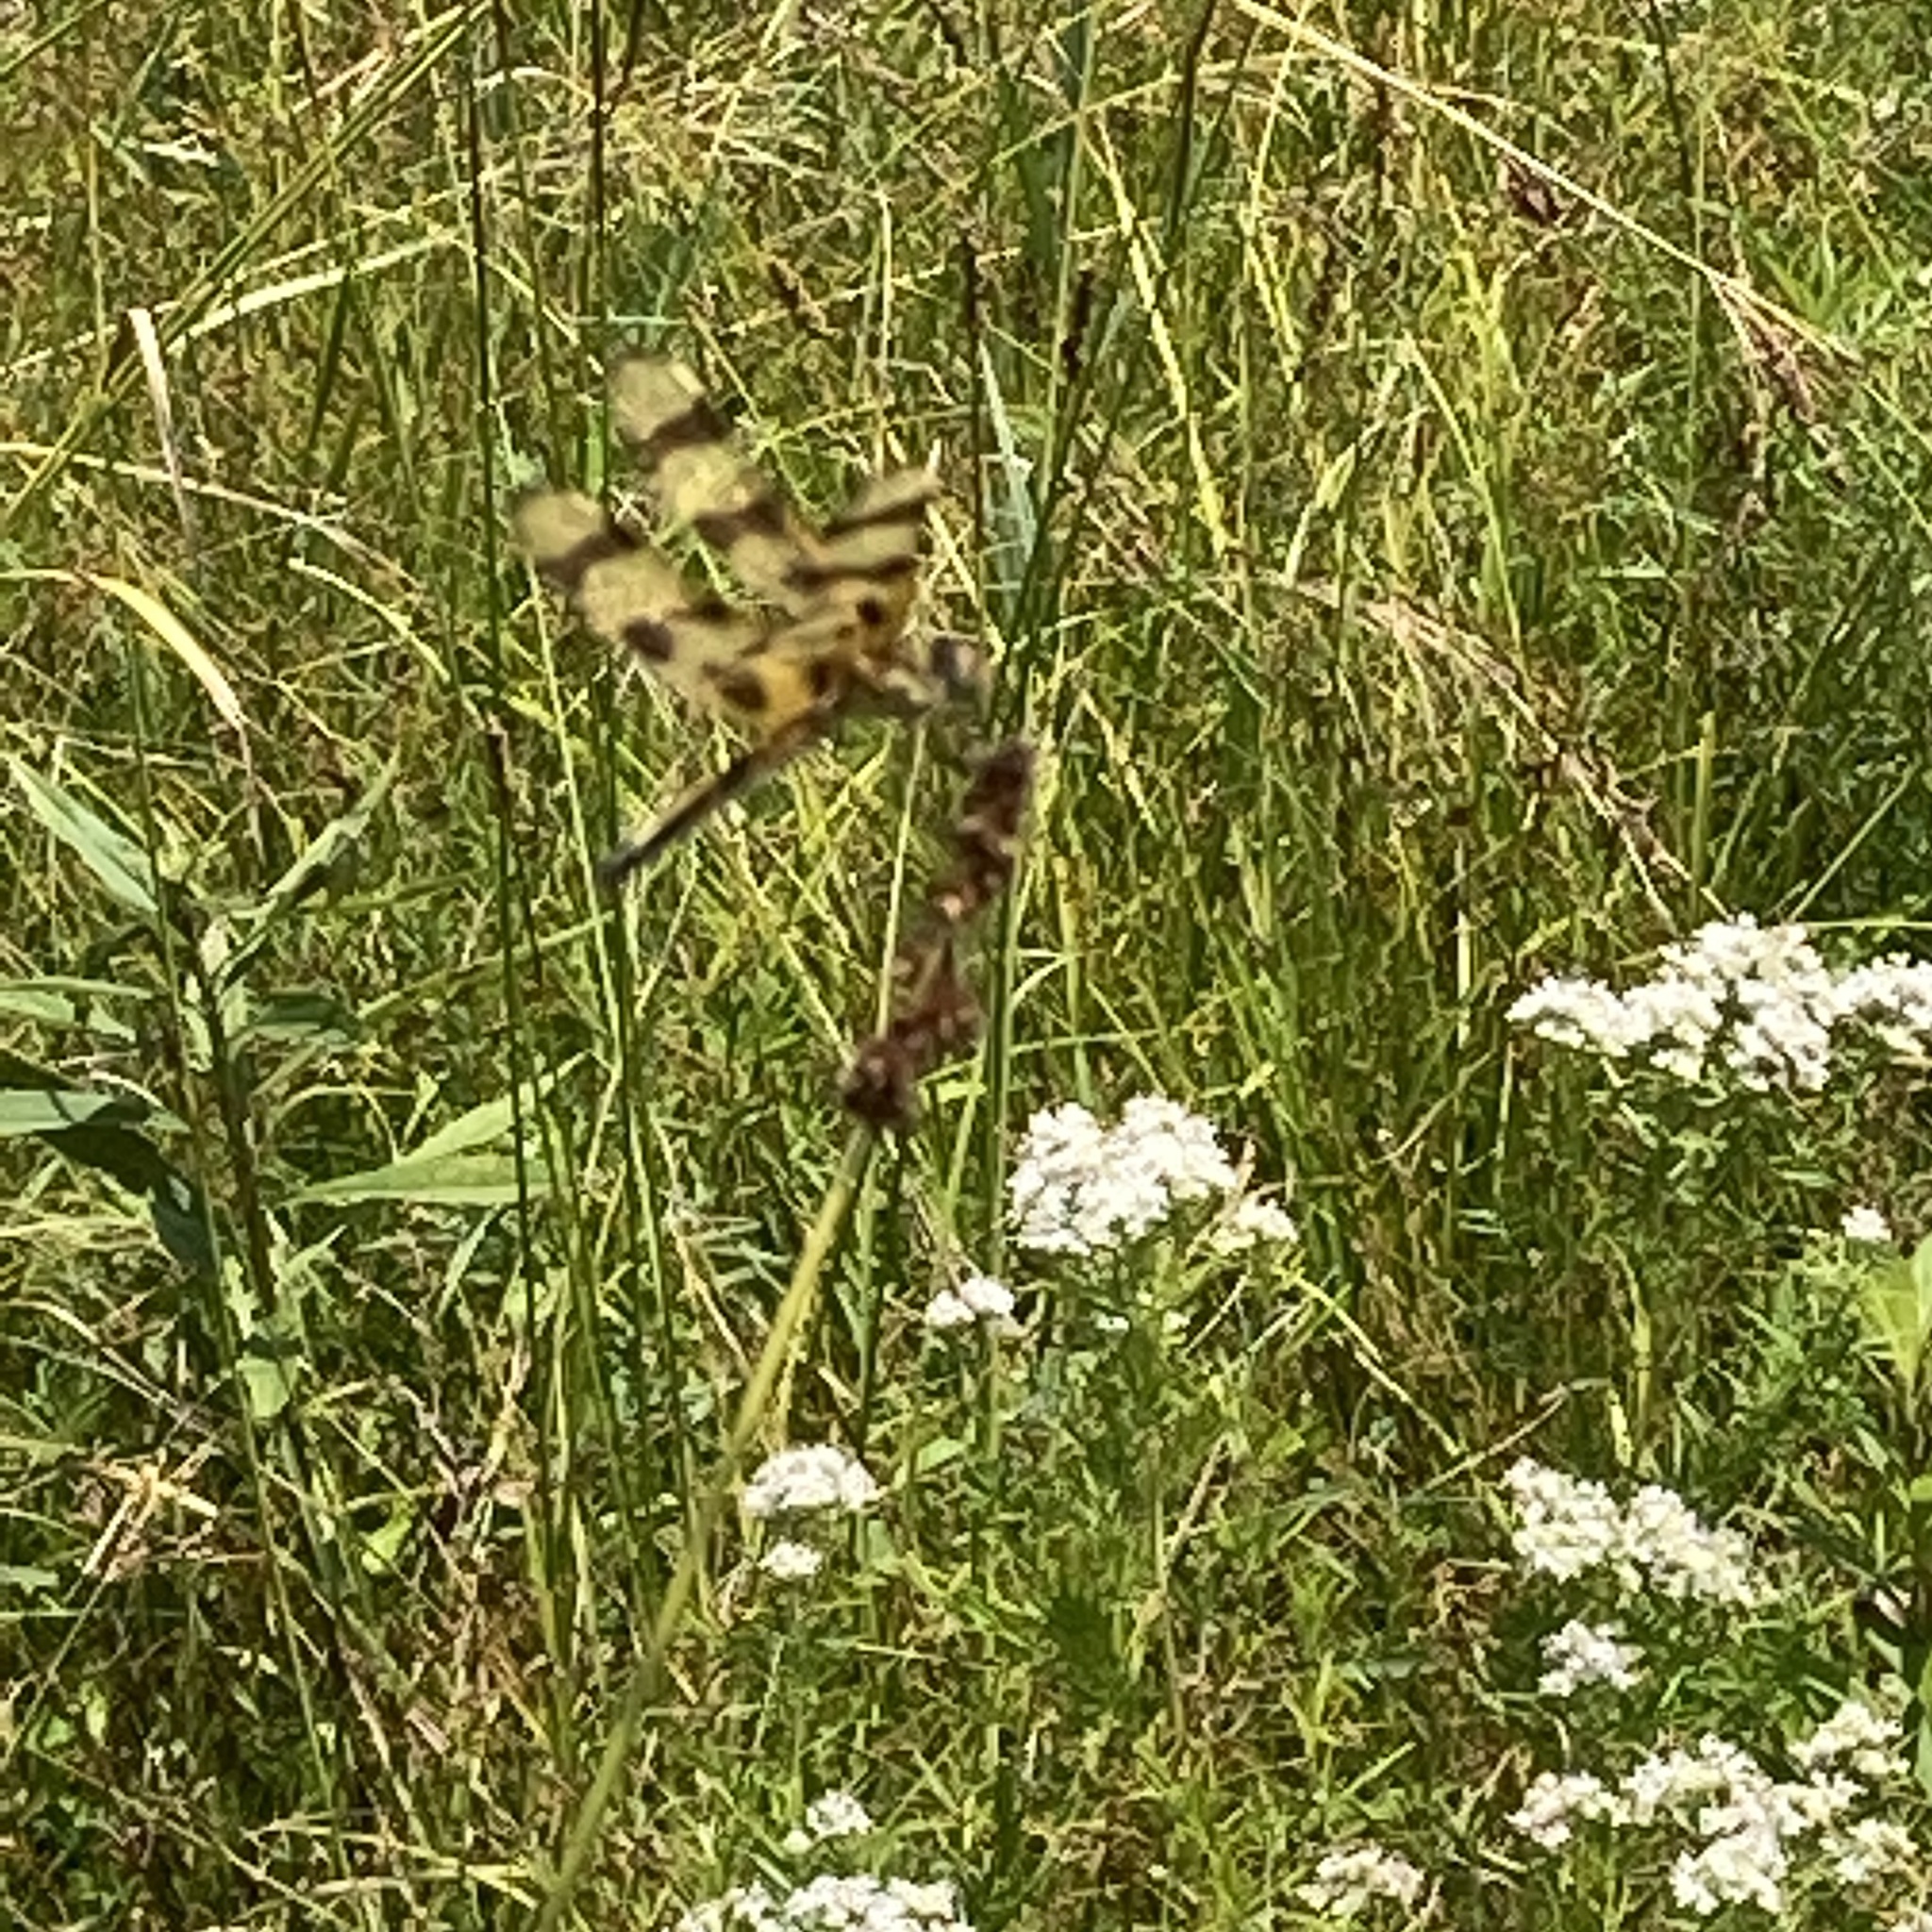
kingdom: Animalia
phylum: Arthropoda
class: Insecta
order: Odonata
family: Libellulidae
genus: Celithemis
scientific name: Celithemis eponina
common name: Halloween pennant
